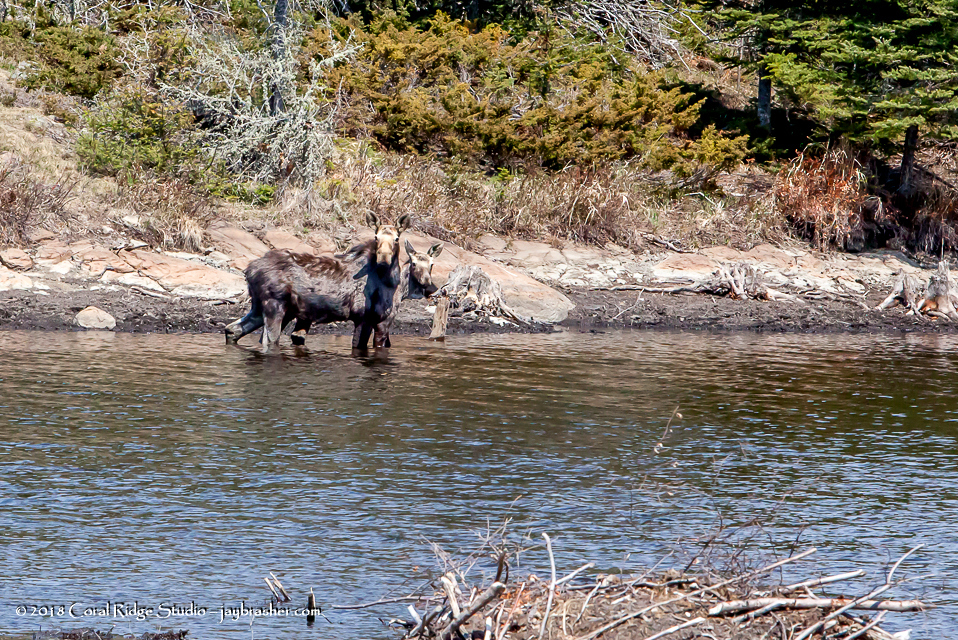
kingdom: Animalia
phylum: Chordata
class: Mammalia
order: Artiodactyla
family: Cervidae
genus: Alces
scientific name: Alces alces
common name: Moose
